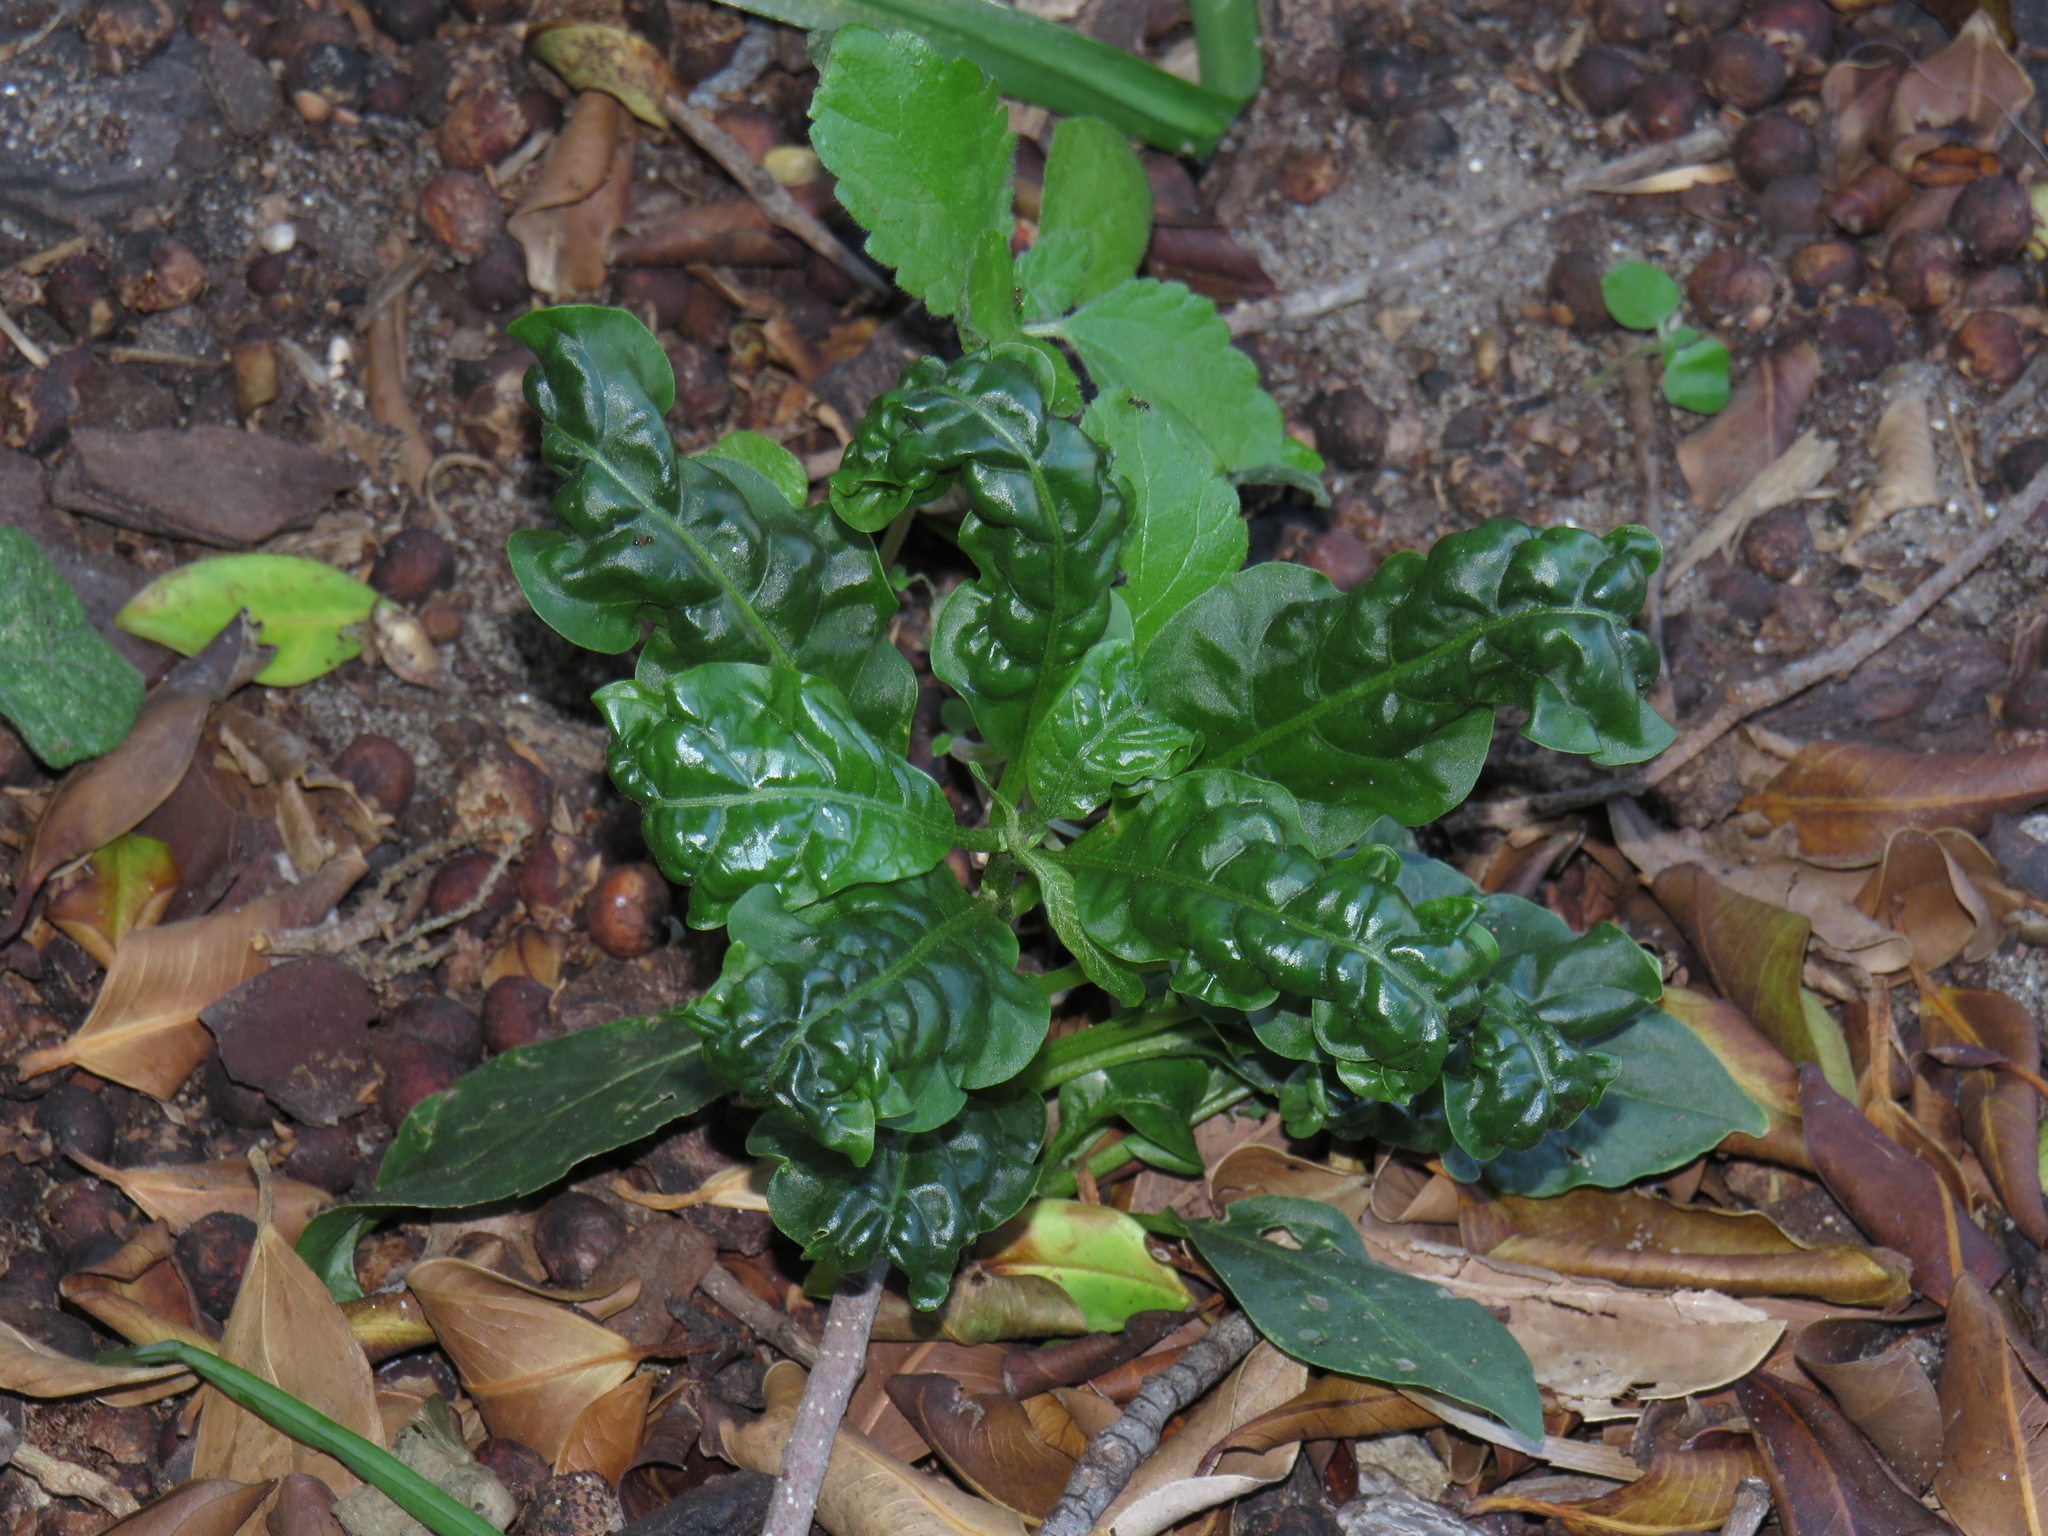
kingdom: Plantae
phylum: Tracheophyta
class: Magnoliopsida
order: Solanales
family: Solanaceae
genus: Cestrum
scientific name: Cestrum laevigatum
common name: Inkberry
